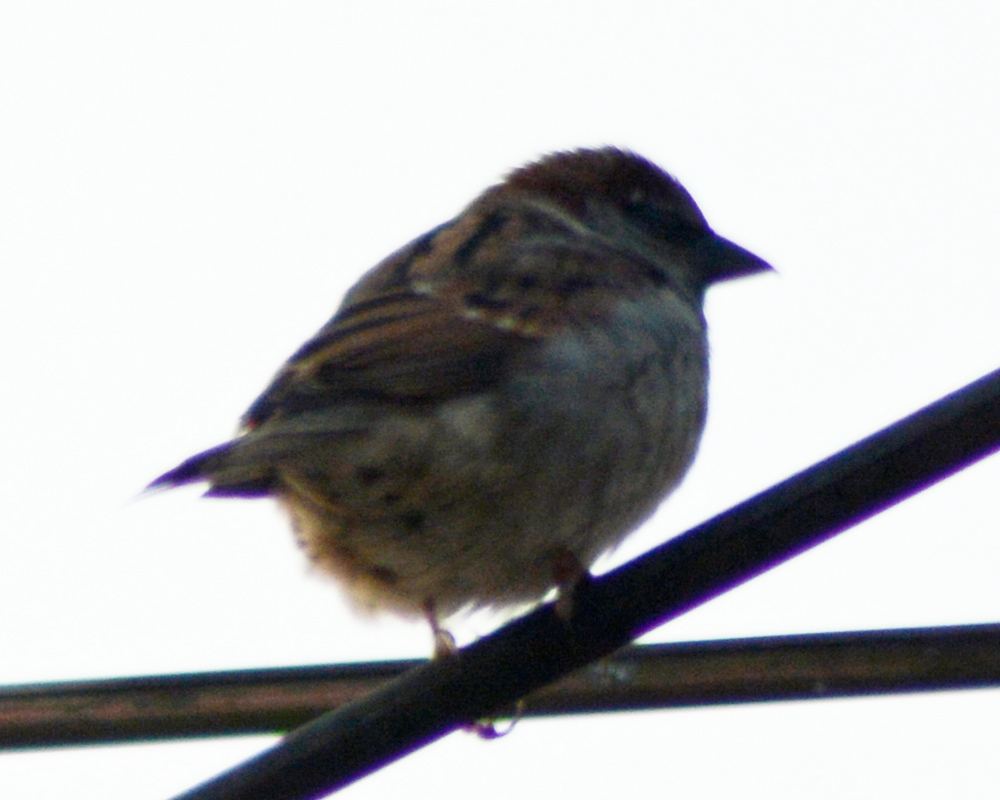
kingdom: Animalia
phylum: Chordata
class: Aves
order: Passeriformes
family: Passeridae
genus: Passer
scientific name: Passer domesticus
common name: House sparrow
